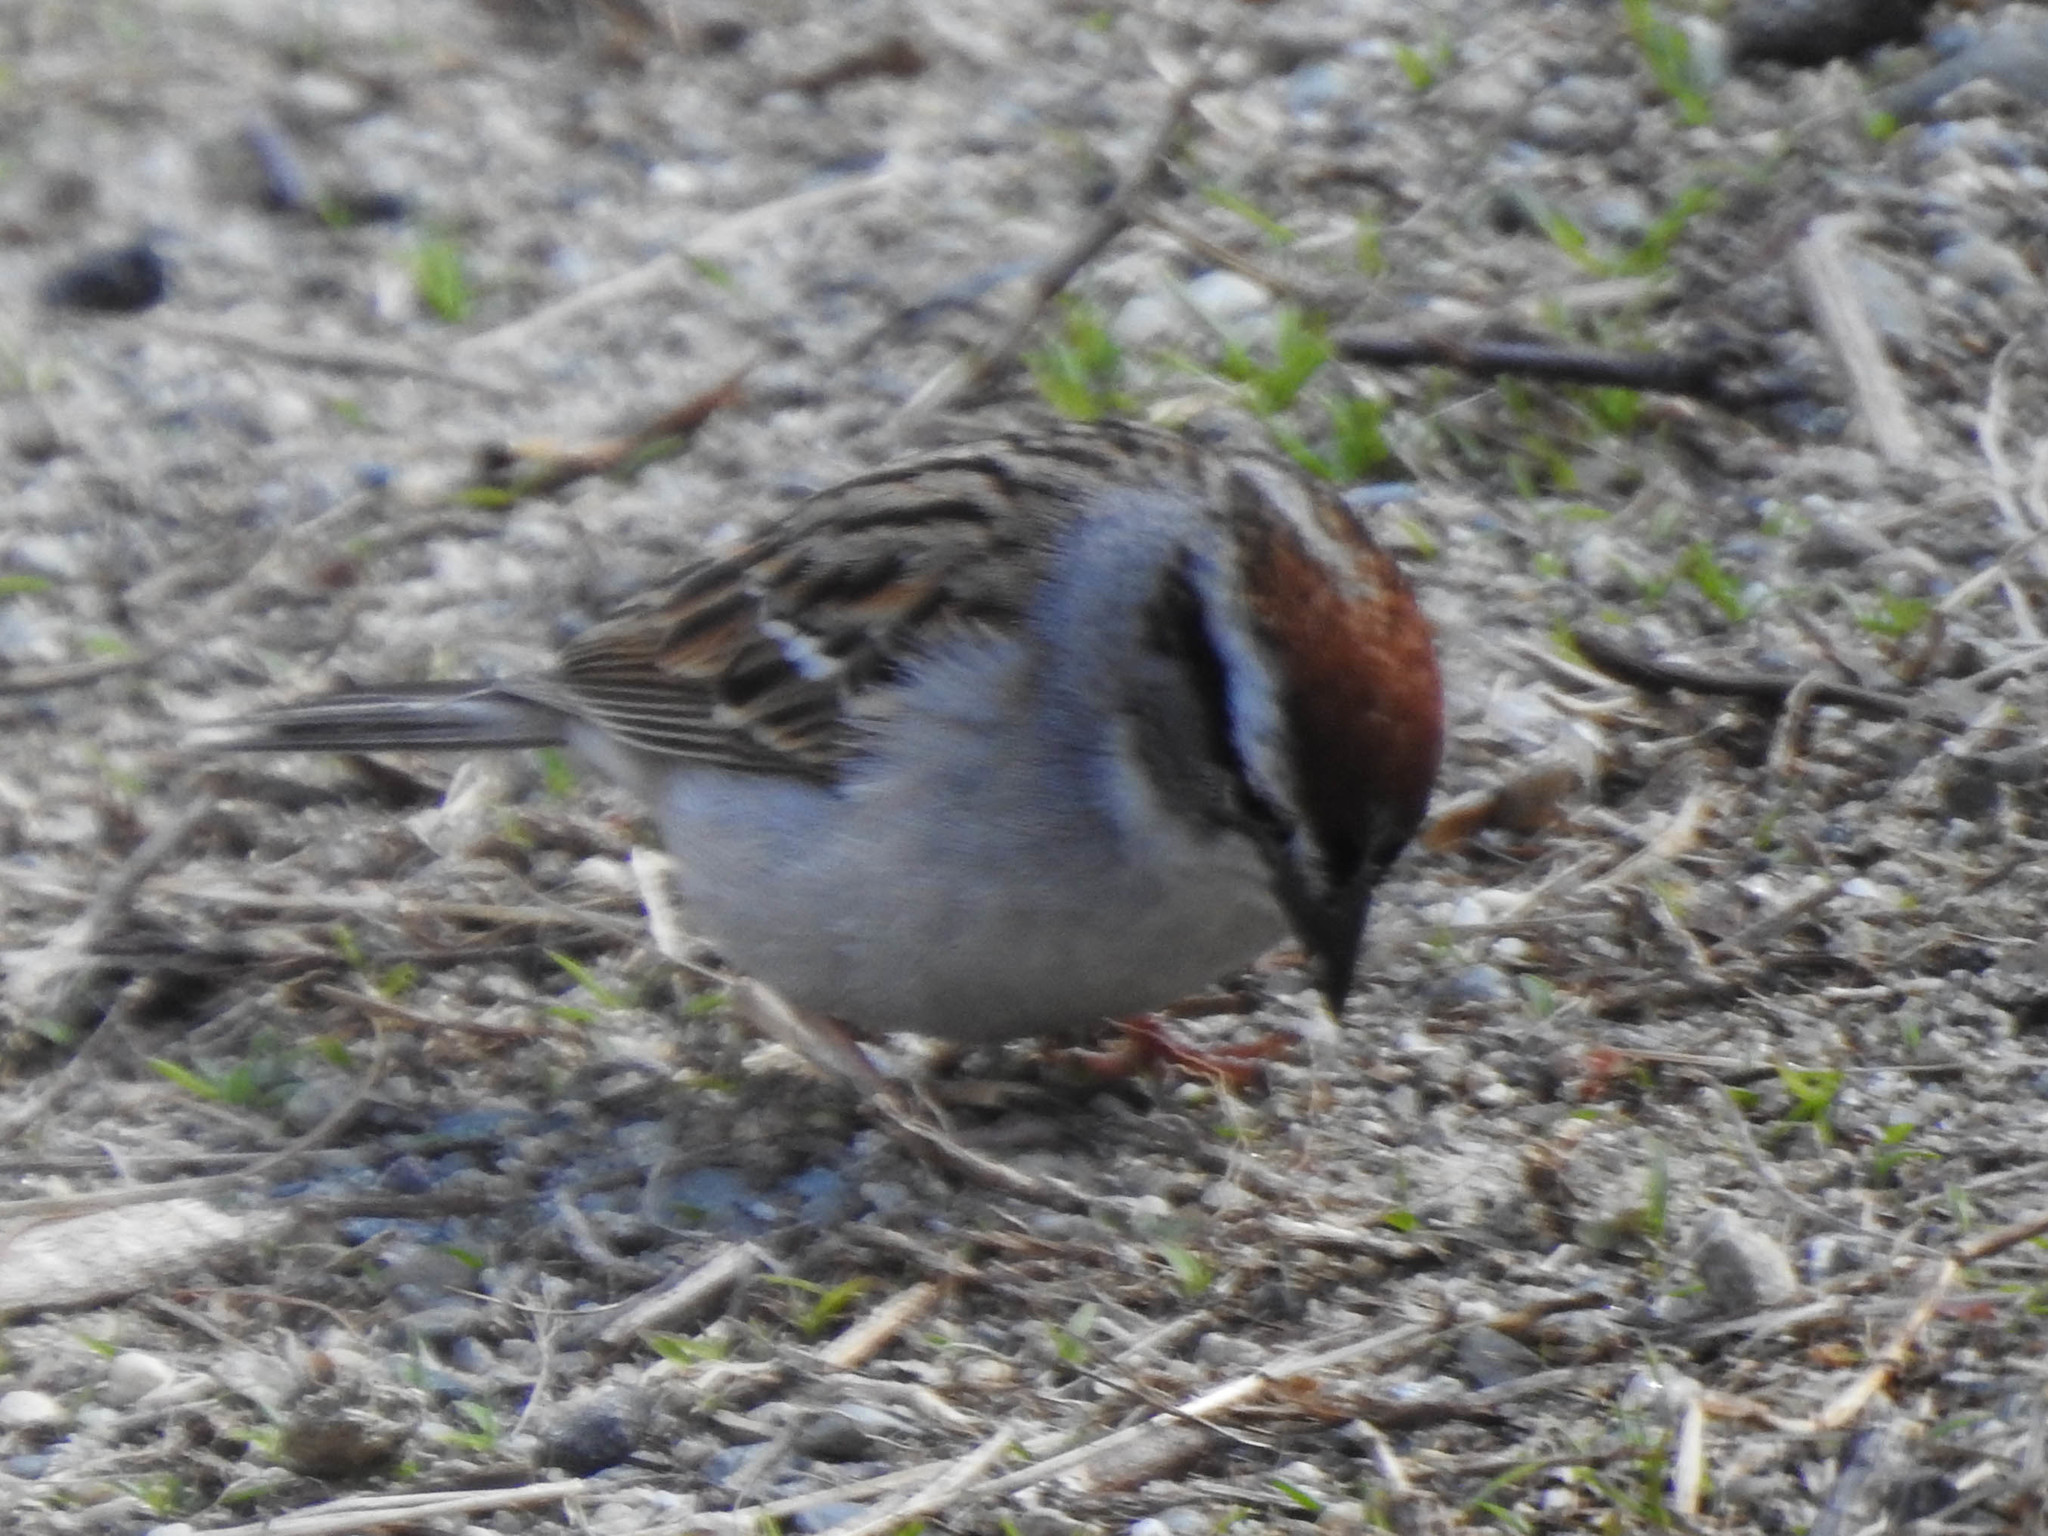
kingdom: Animalia
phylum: Chordata
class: Aves
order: Passeriformes
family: Passerellidae
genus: Spizella
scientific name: Spizella passerina
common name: Chipping sparrow
